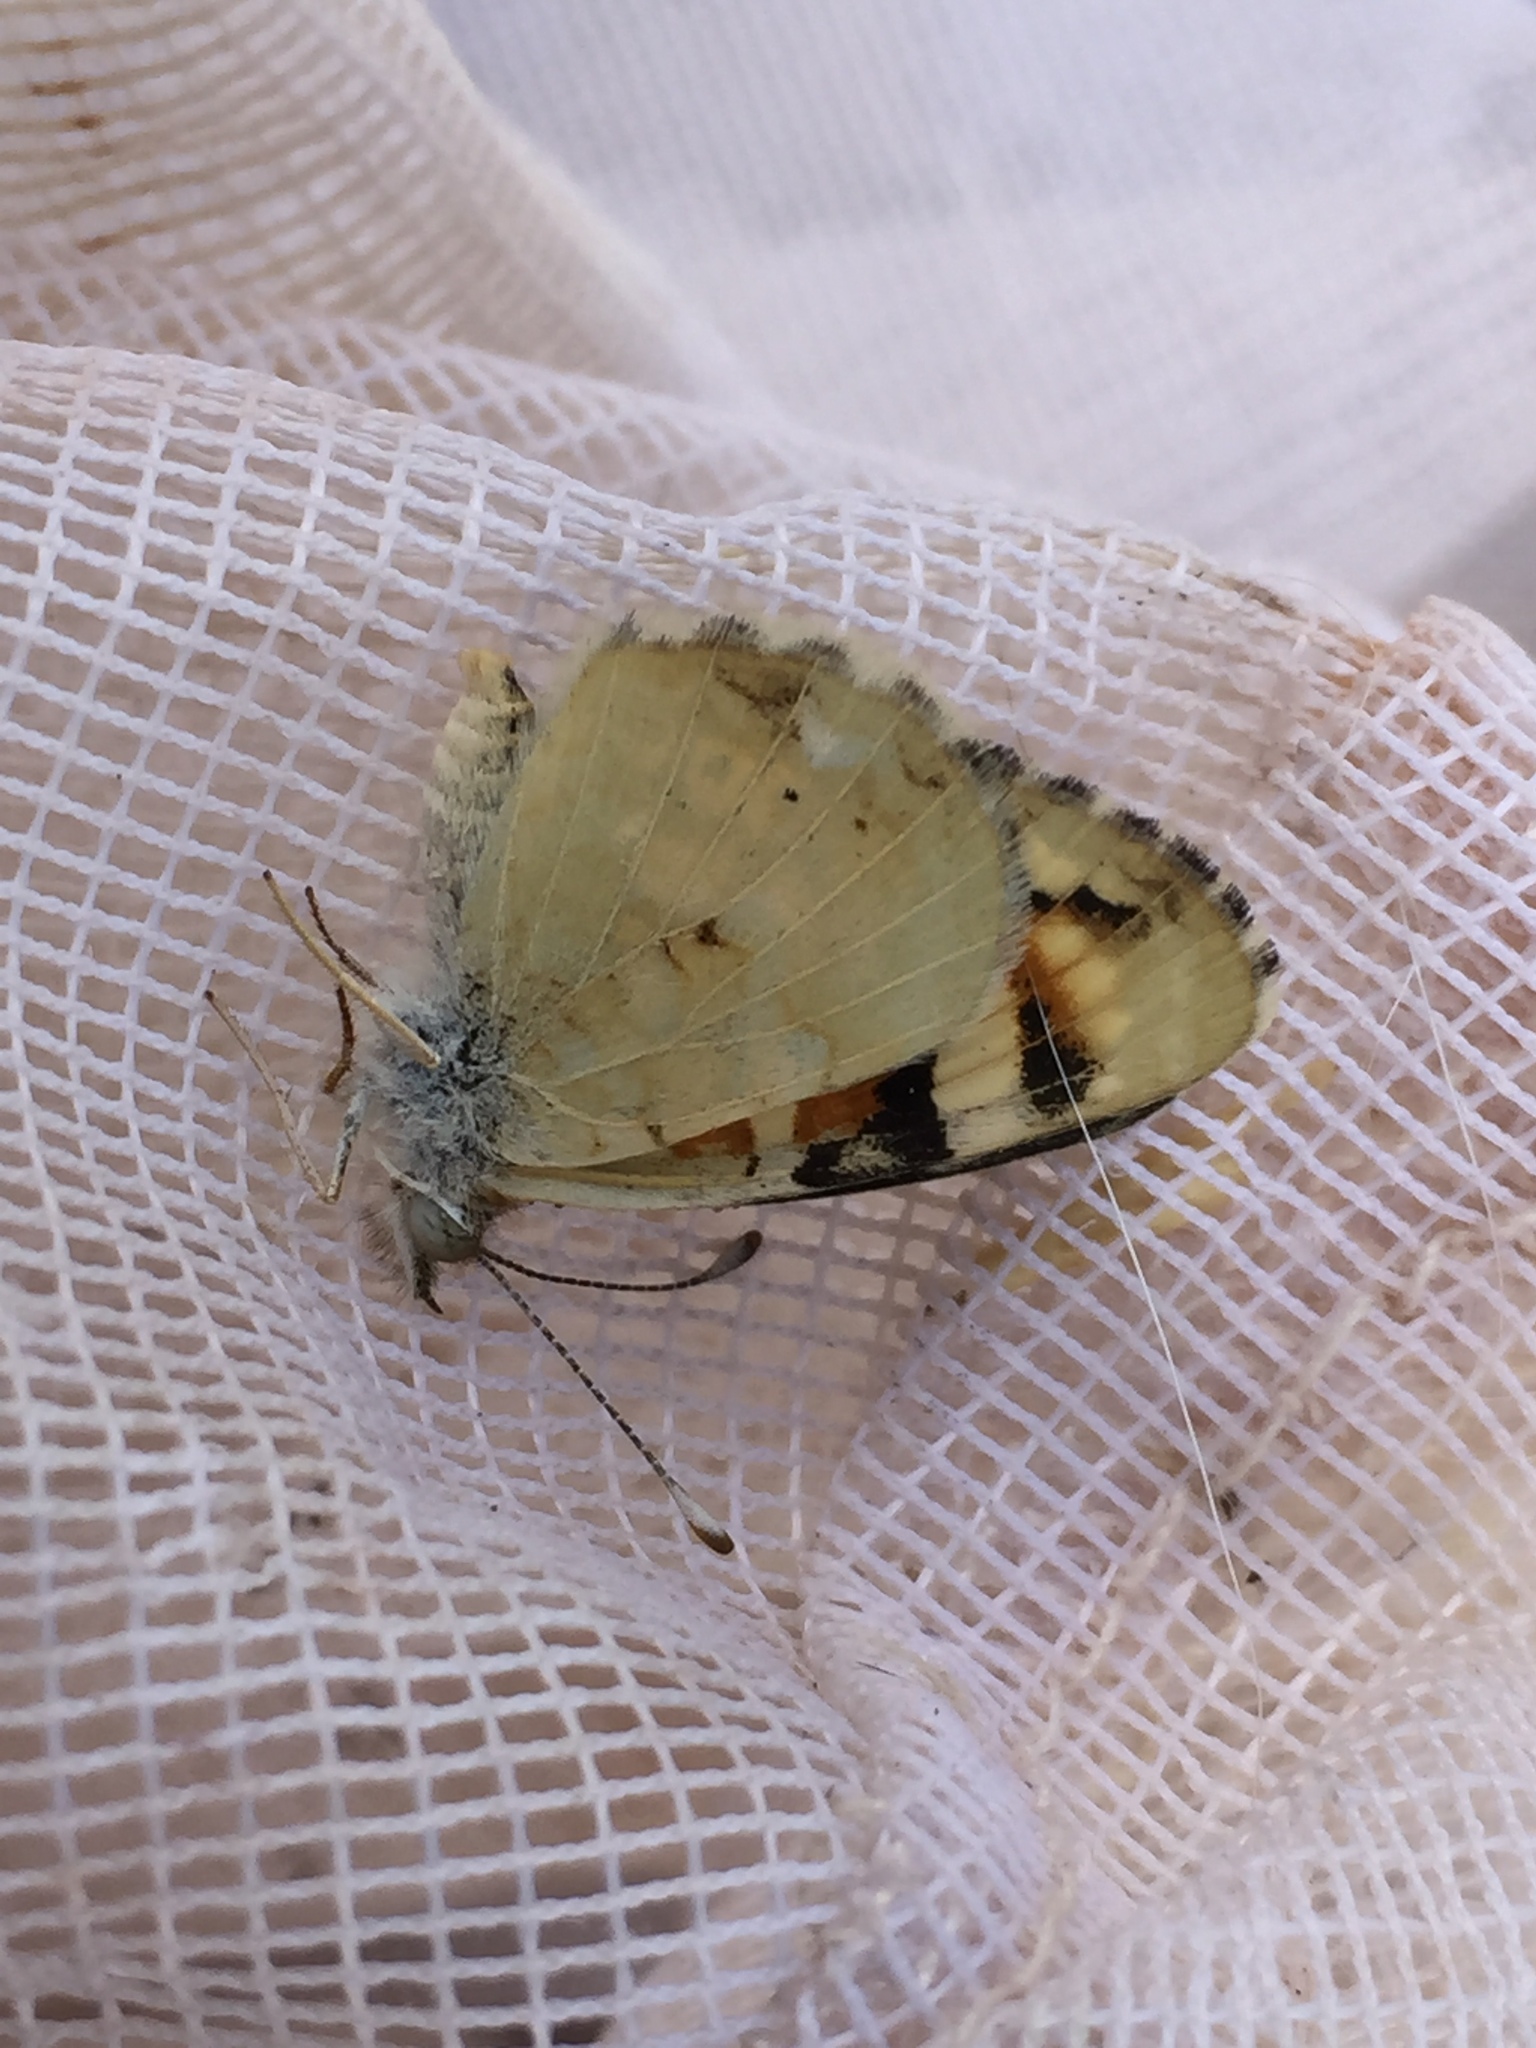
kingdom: Animalia
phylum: Arthropoda
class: Insecta
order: Lepidoptera
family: Nymphalidae
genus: Phyciodes
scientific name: Phyciodes picta
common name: Painted crescent
